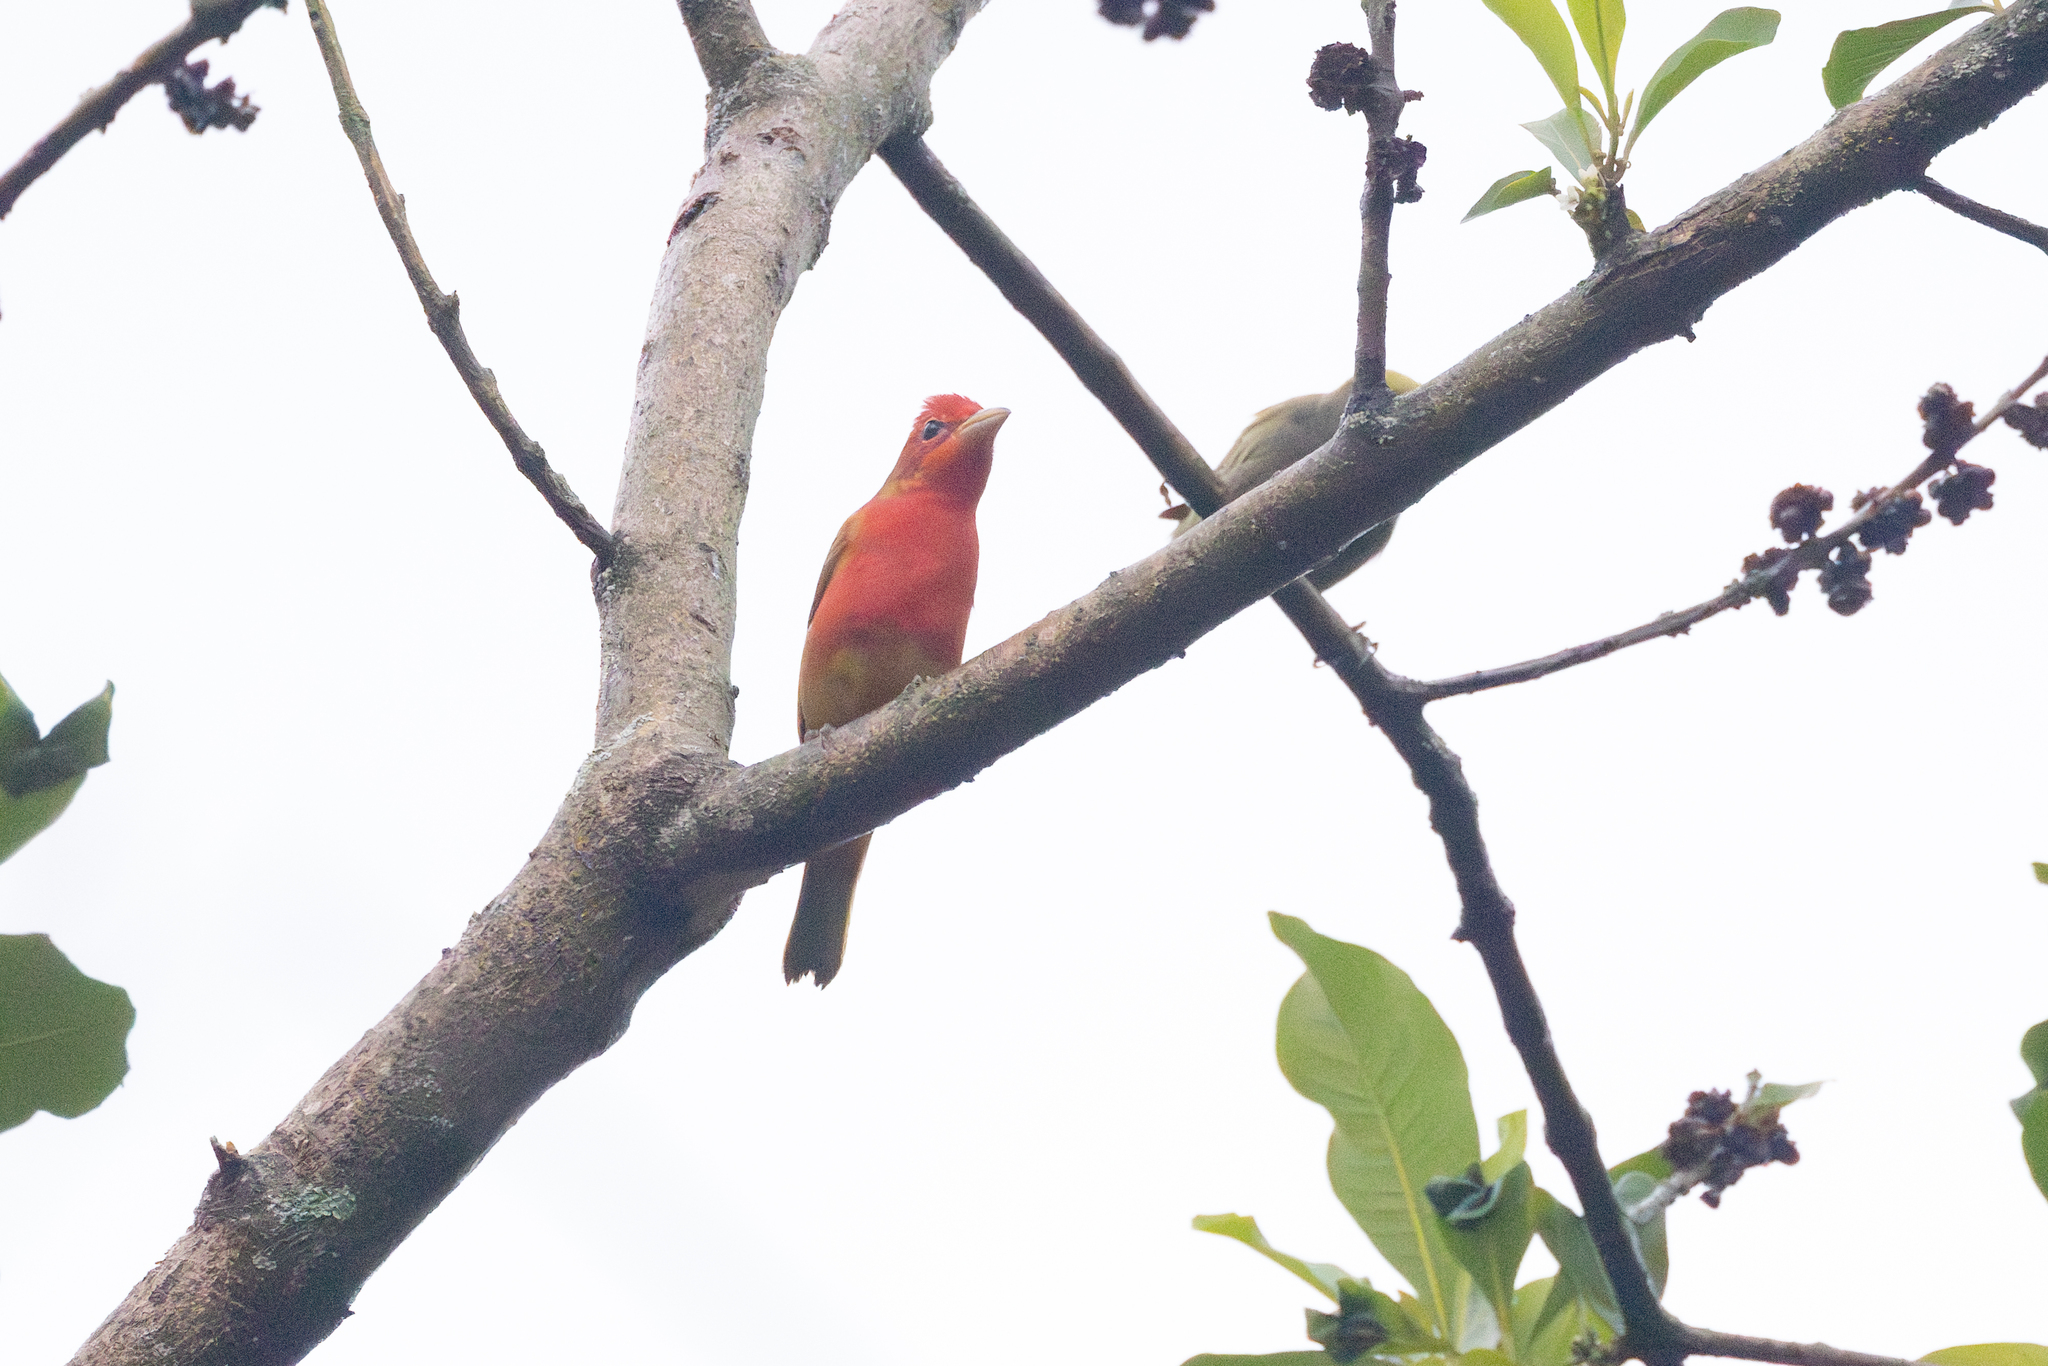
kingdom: Animalia
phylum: Chordata
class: Aves
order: Passeriformes
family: Cardinalidae
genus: Piranga
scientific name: Piranga rubra
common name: Summer tanager
